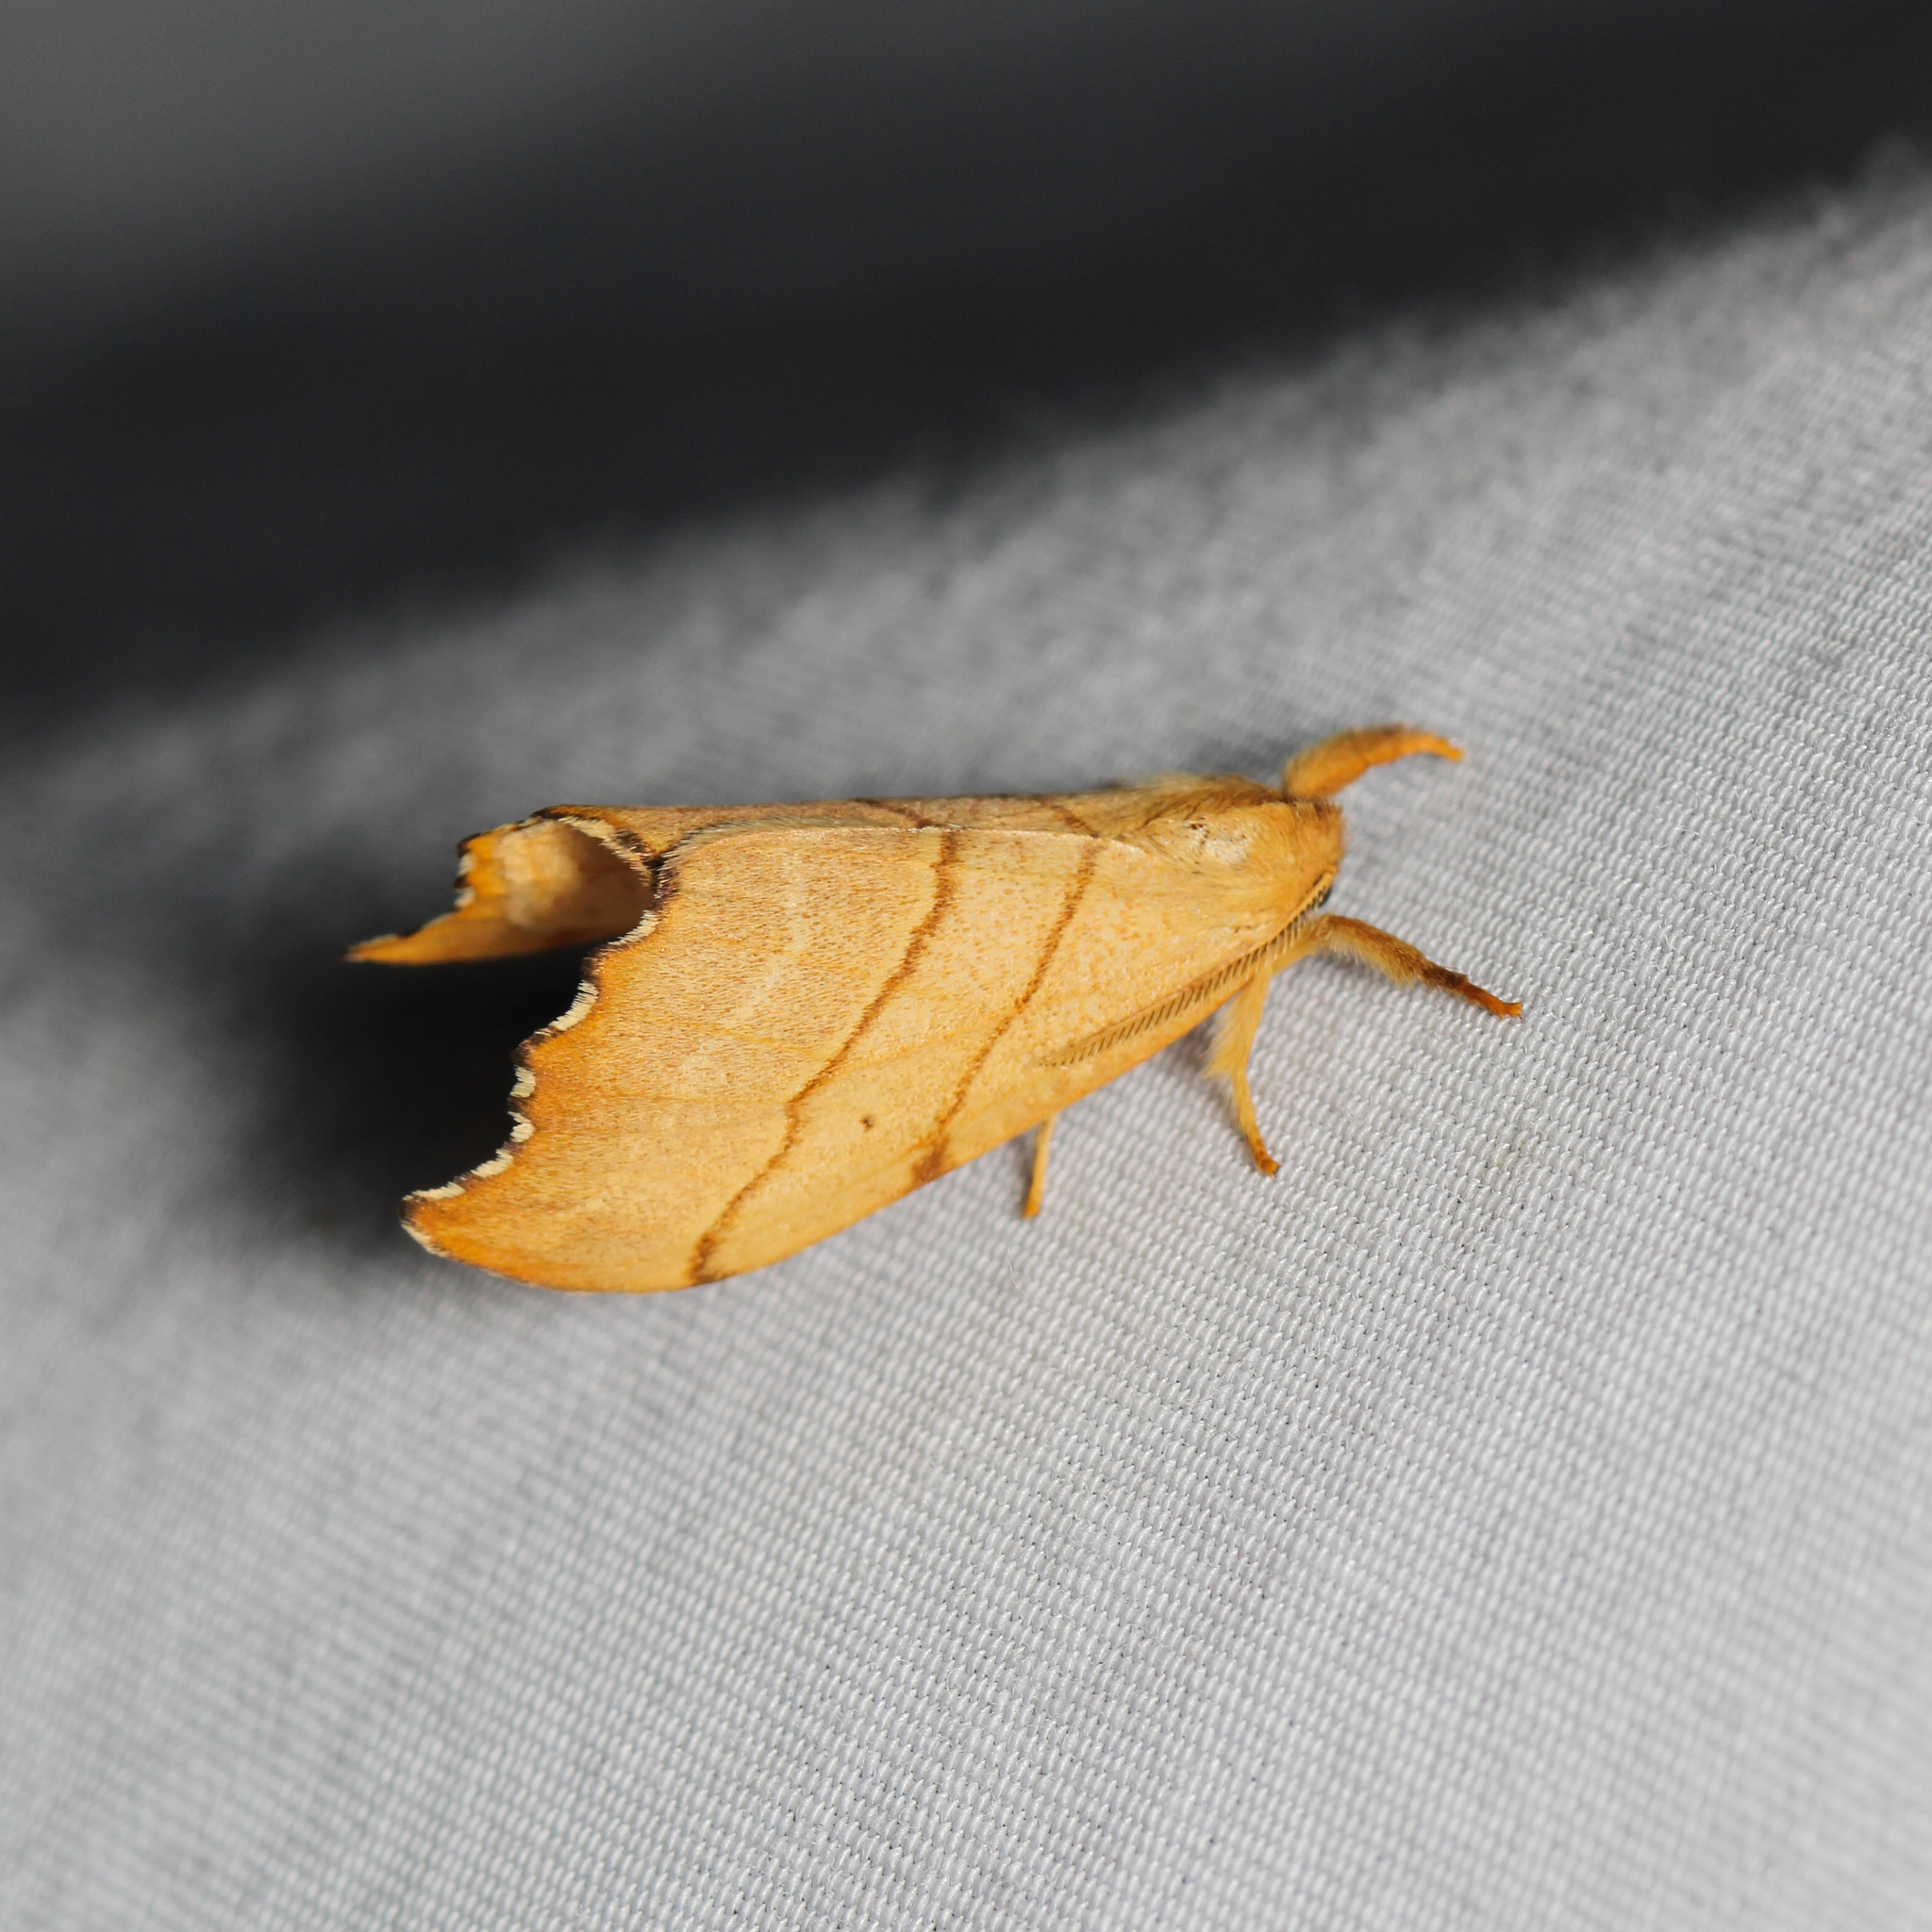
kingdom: Animalia
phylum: Arthropoda
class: Insecta
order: Lepidoptera
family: Drepanidae
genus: Falcaria
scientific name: Falcaria bilineata
